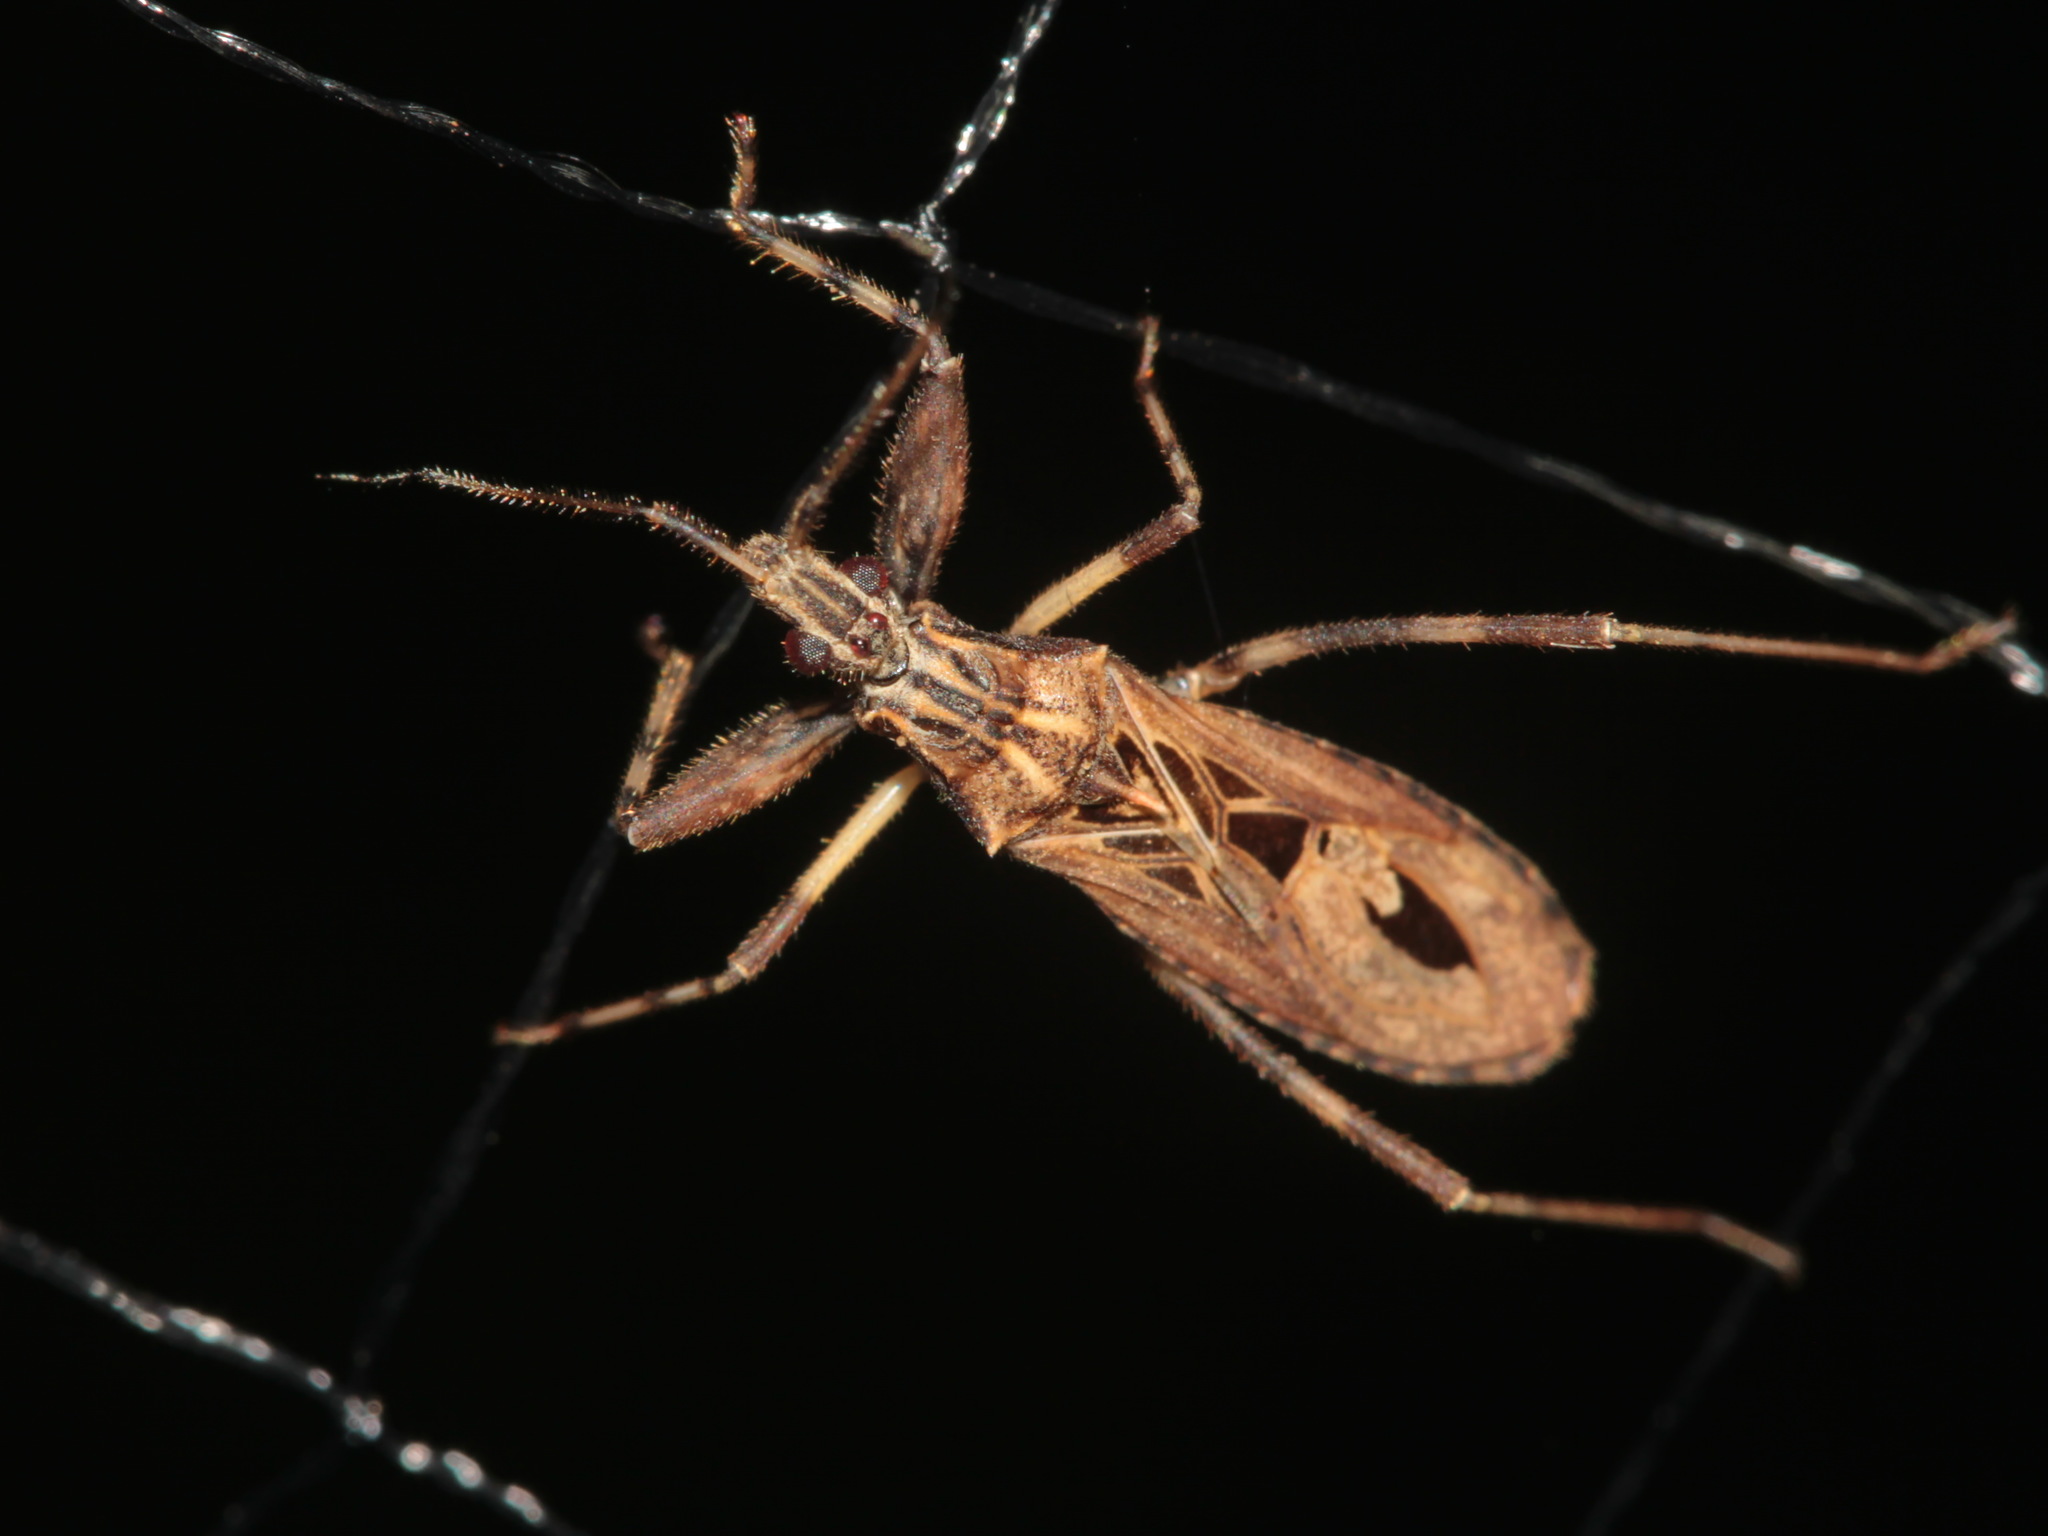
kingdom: Animalia
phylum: Arthropoda
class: Insecta
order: Hemiptera
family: Reduviidae
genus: Oncocephalus
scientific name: Oncocephalus sarawakensis
